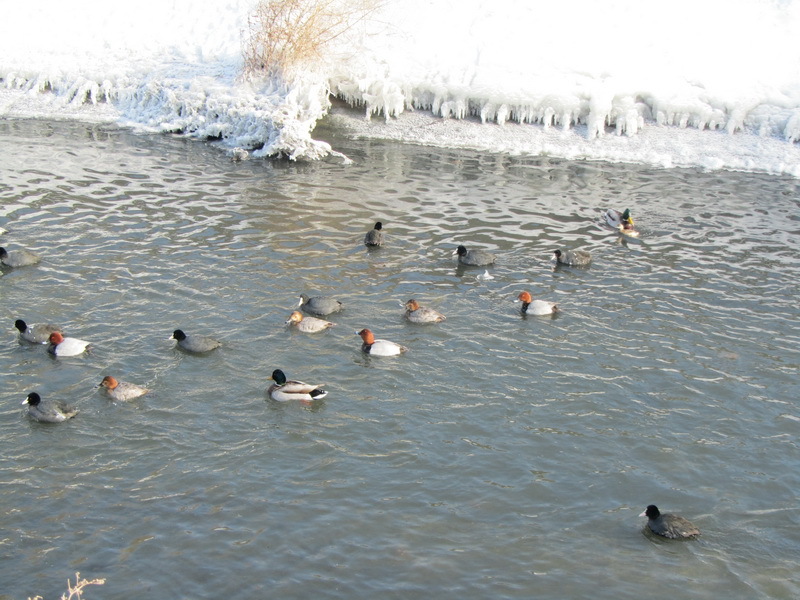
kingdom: Animalia
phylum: Chordata
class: Aves
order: Anseriformes
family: Anatidae
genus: Aythya
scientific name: Aythya ferina
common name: Common pochard
